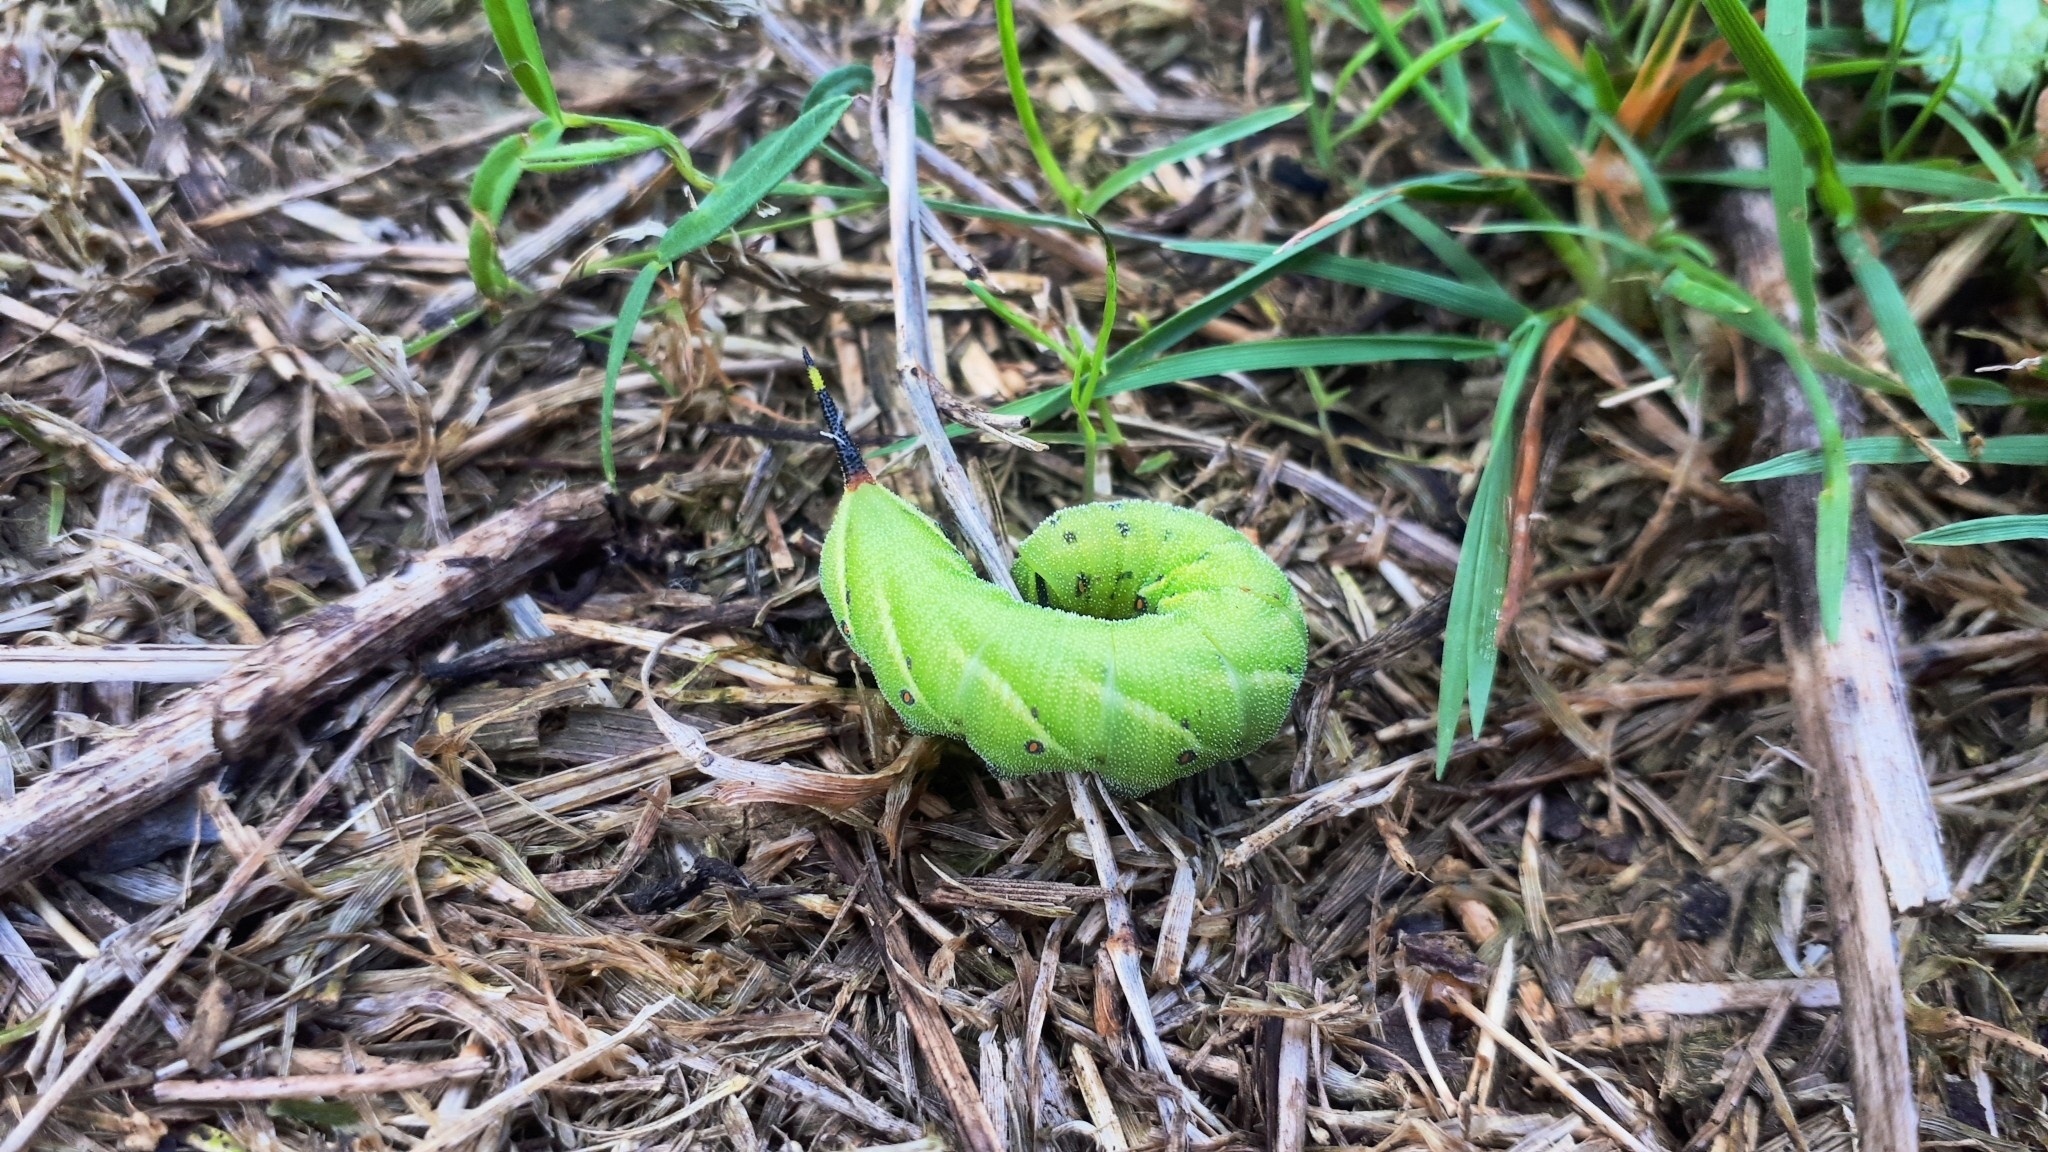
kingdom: Animalia
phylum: Arthropoda
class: Insecta
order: Lepidoptera
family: Sphingidae
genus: Agrius
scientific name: Agrius convolvuli
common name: Convolvulus hawkmoth
